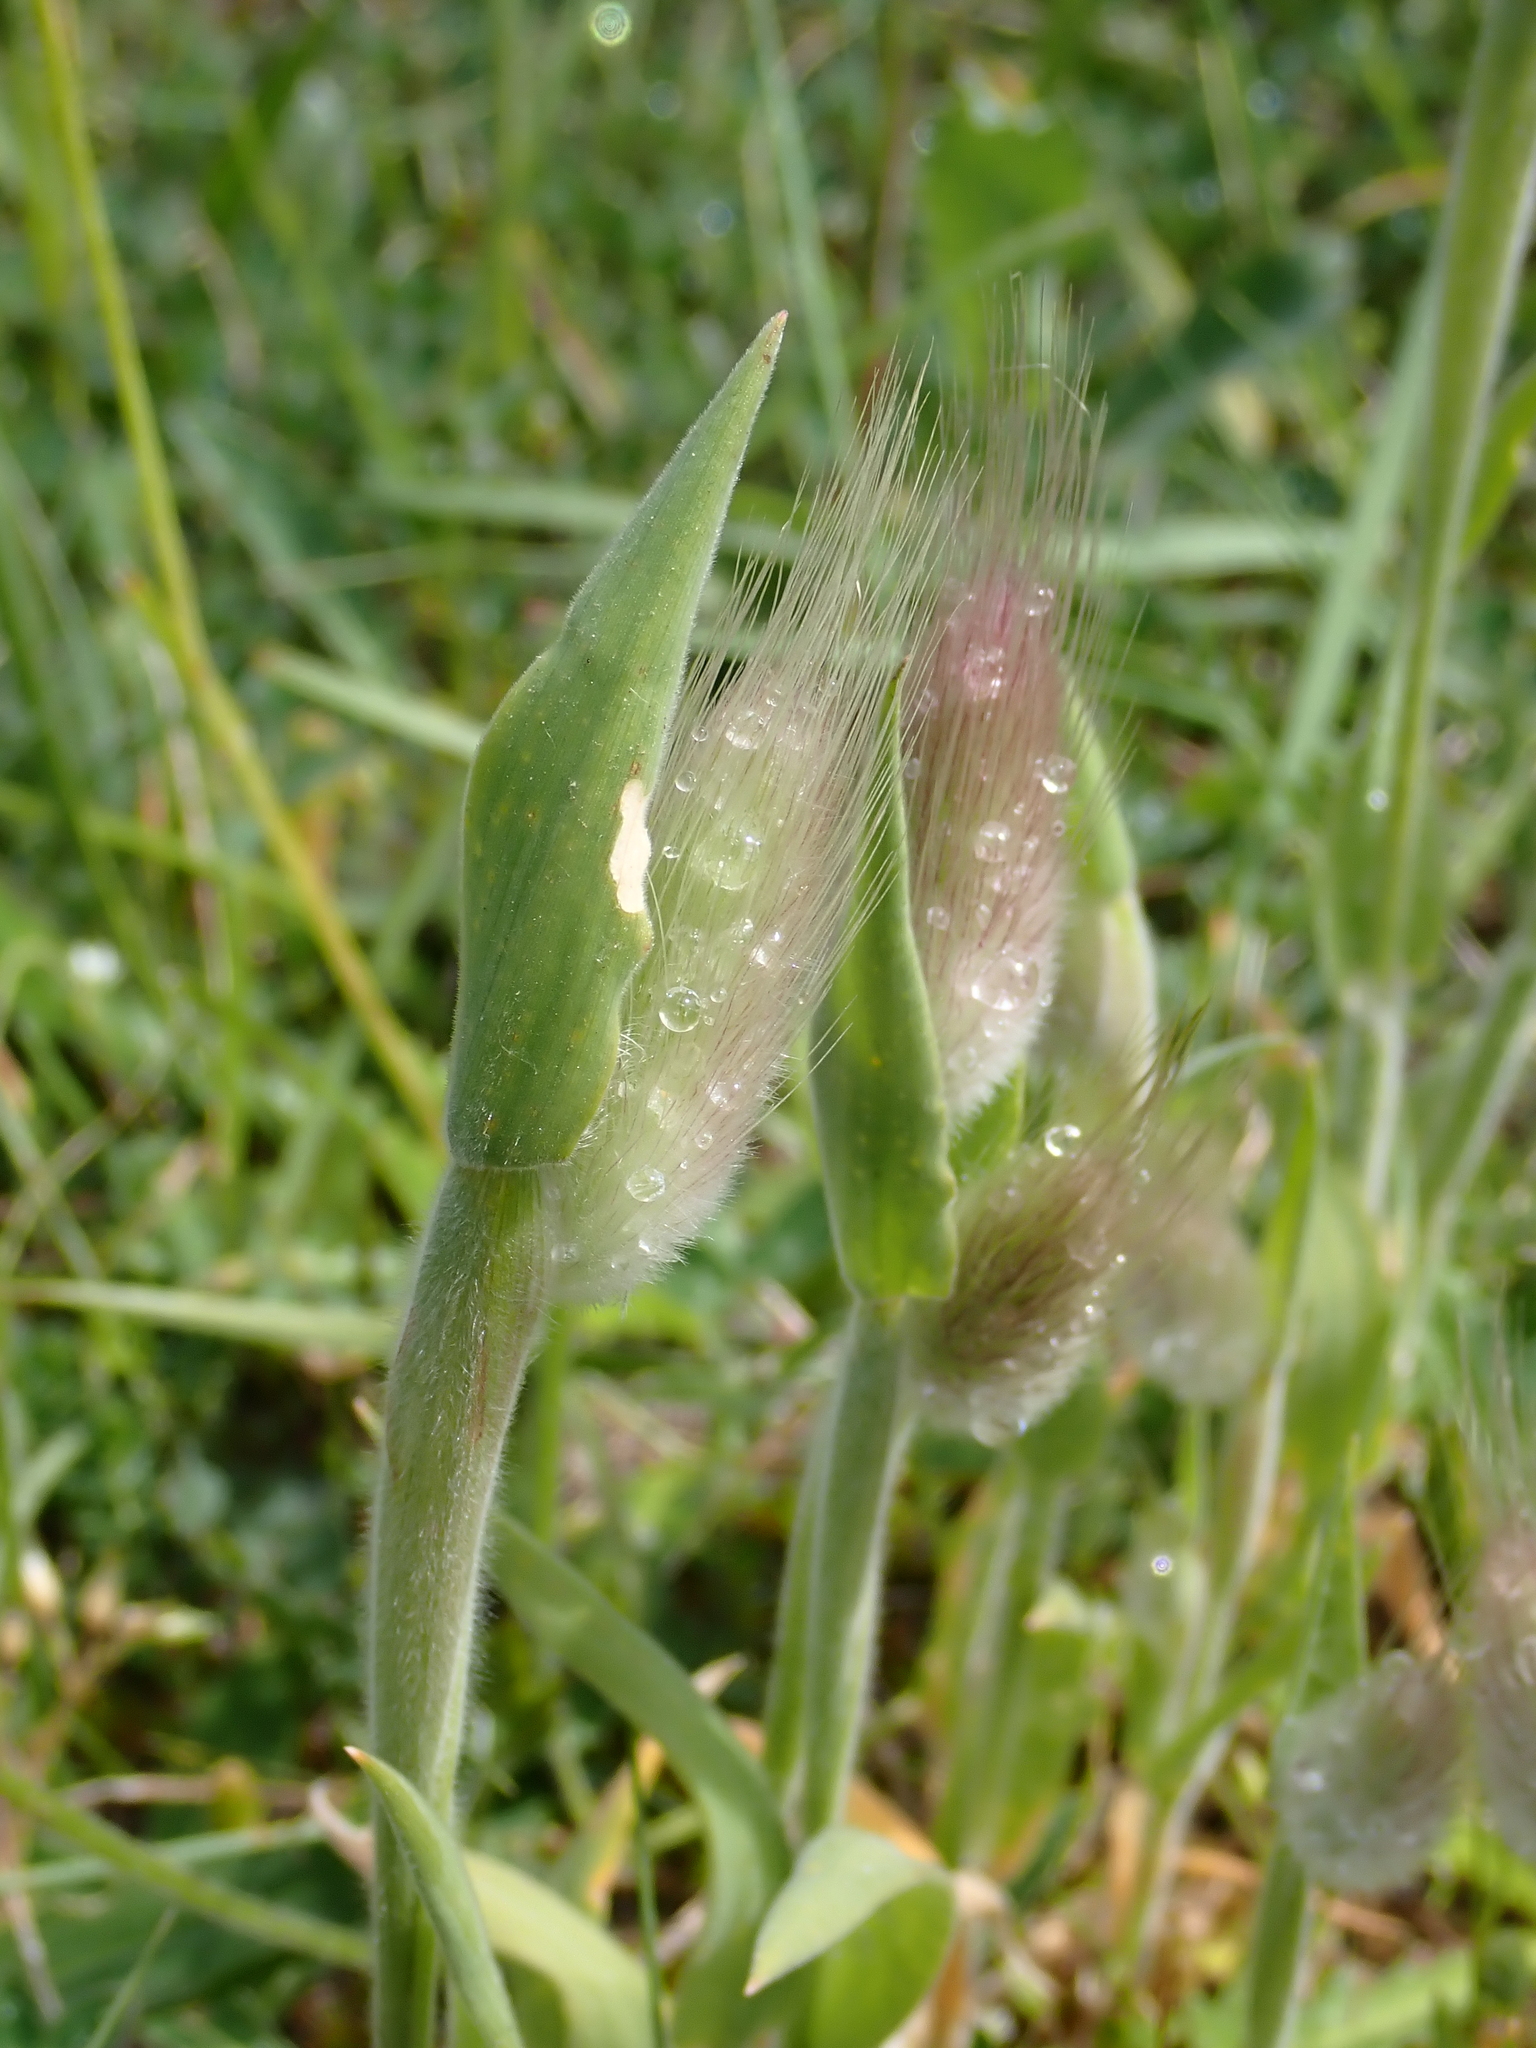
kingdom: Plantae
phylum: Tracheophyta
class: Liliopsida
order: Poales
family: Poaceae
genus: Lagurus
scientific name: Lagurus ovatus
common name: Hare's-tail
